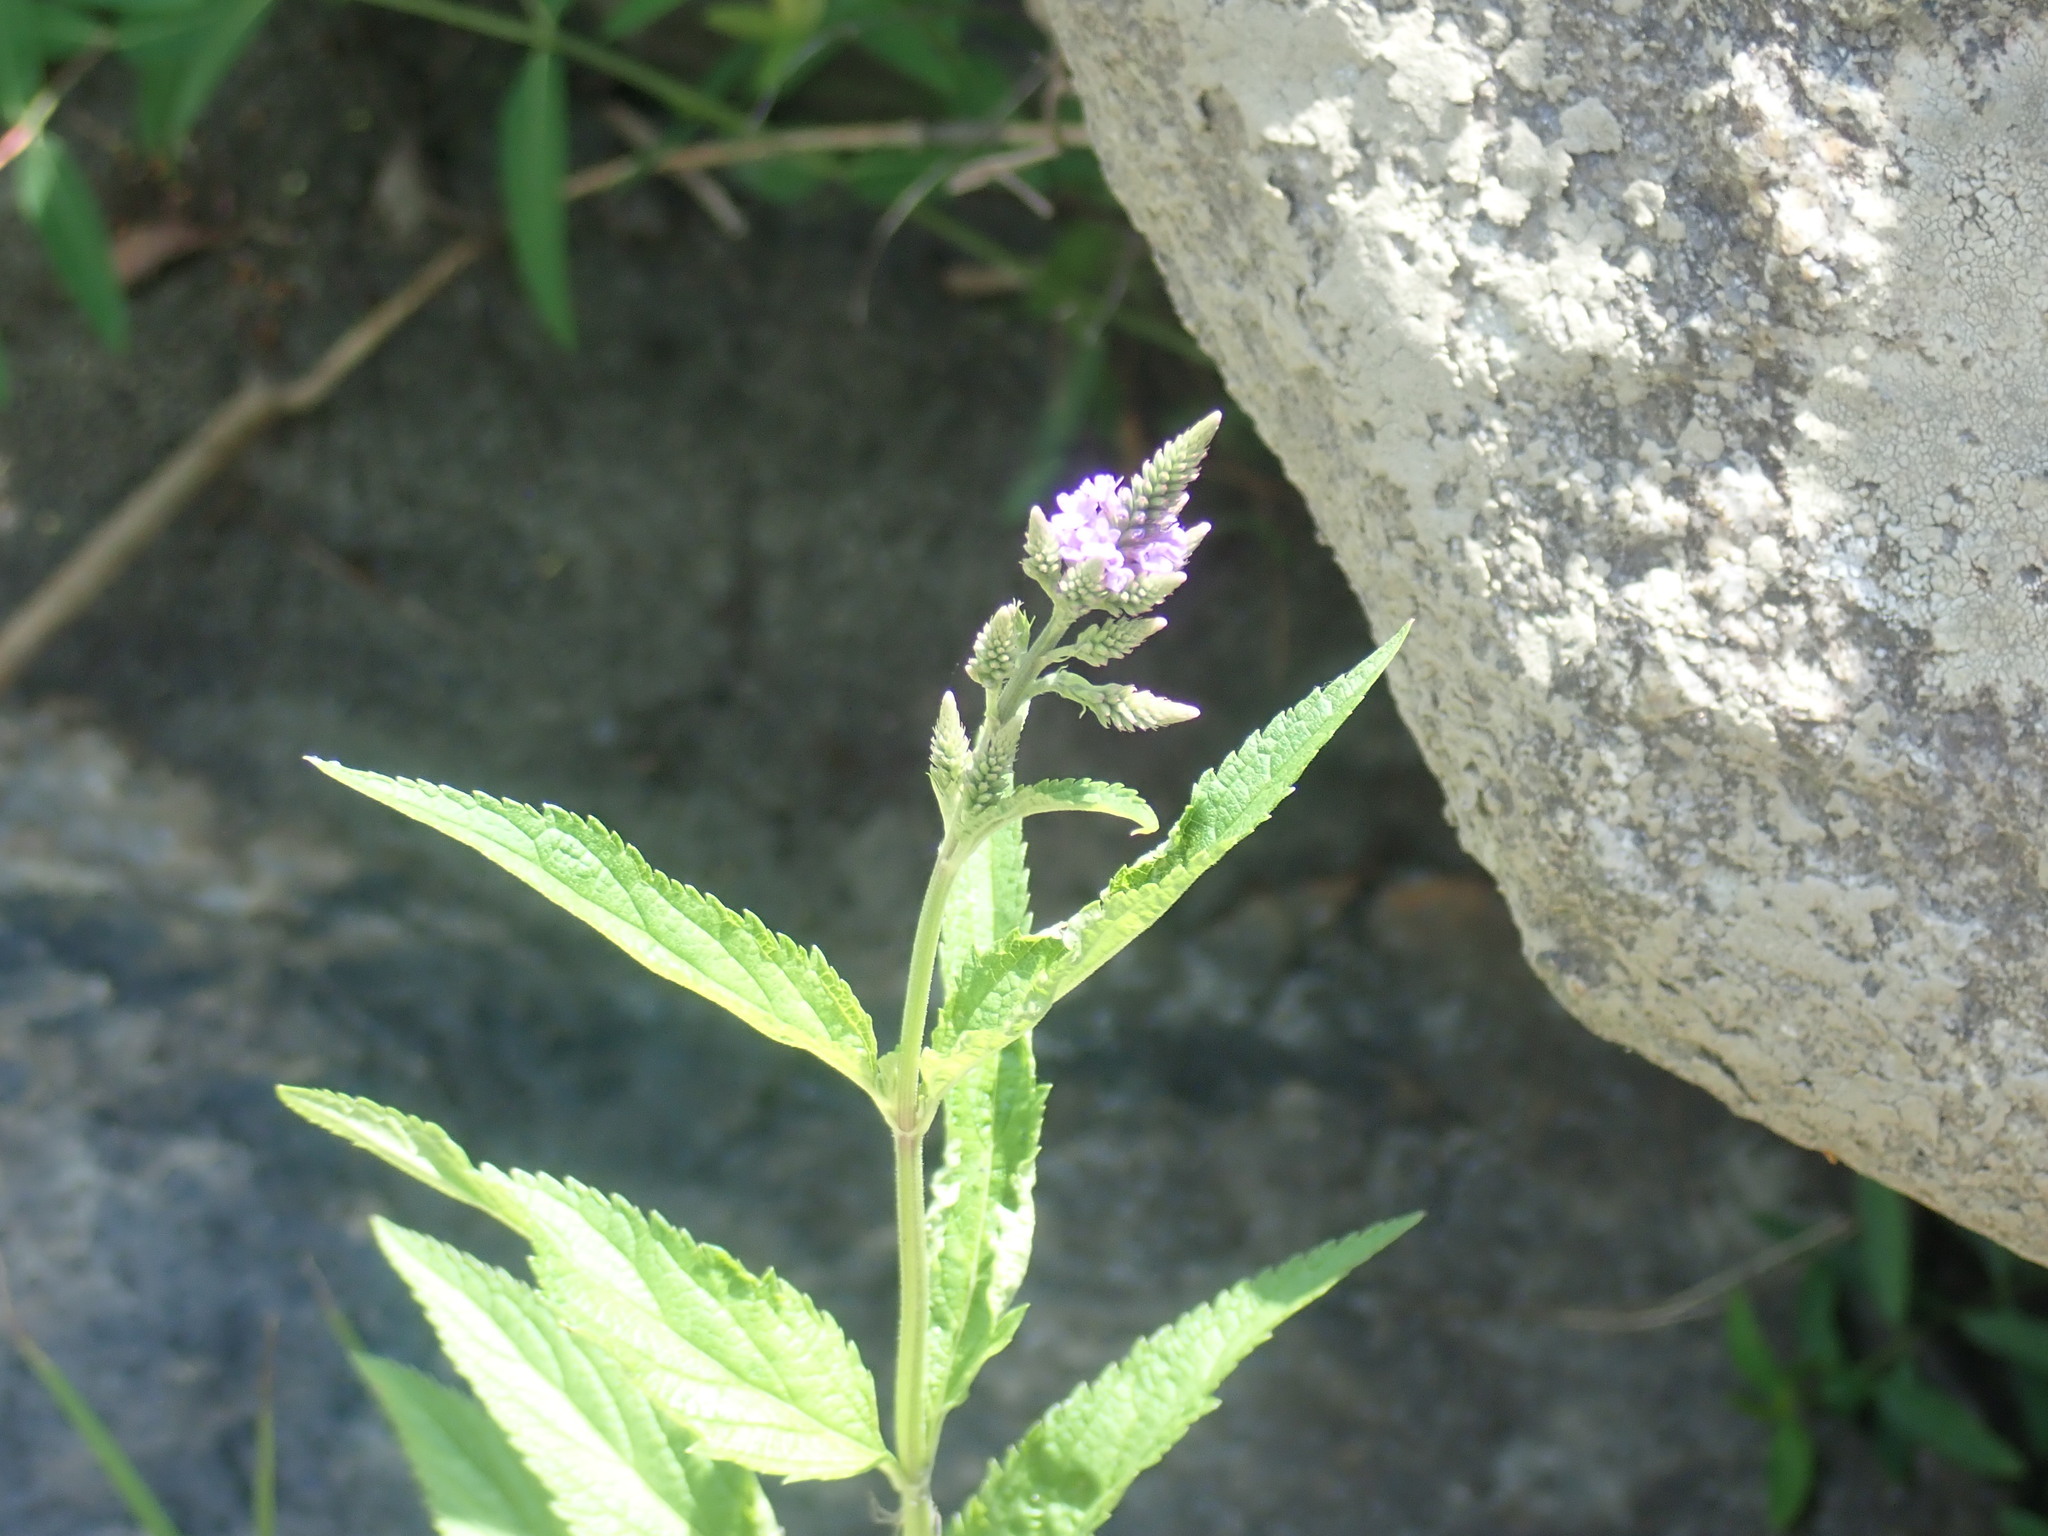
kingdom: Plantae
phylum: Tracheophyta
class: Magnoliopsida
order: Lamiales
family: Verbenaceae
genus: Verbena
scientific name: Verbena hastata
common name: American blue vervain
